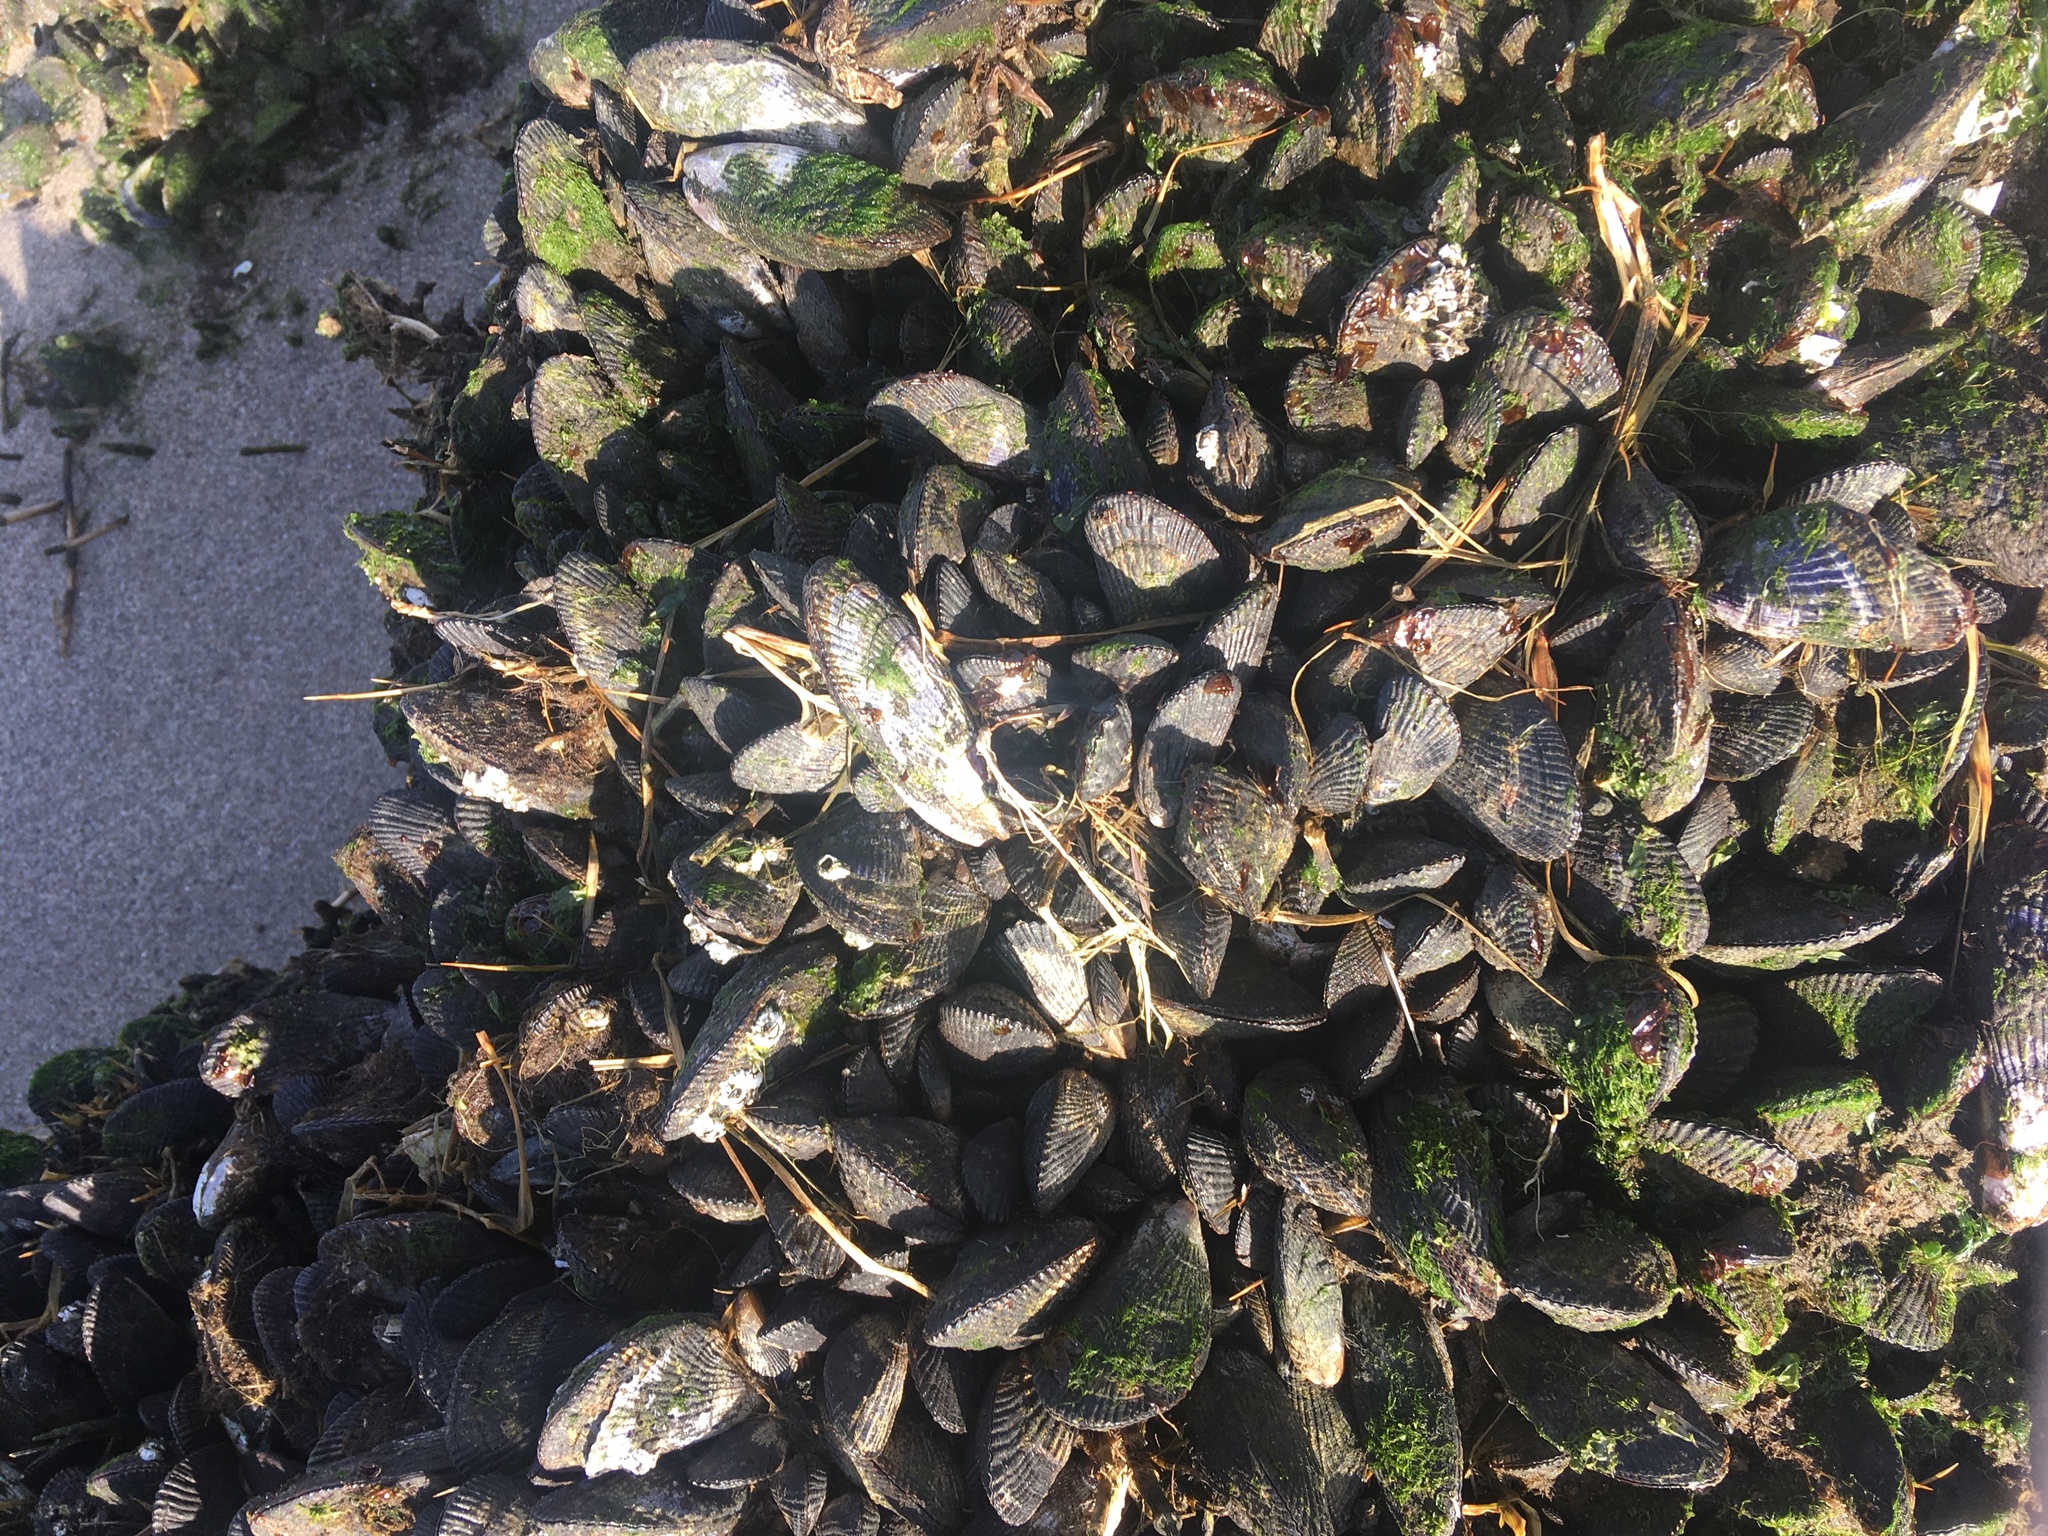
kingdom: Animalia
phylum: Mollusca
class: Bivalvia
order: Mytilida
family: Mytilidae
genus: Geukensia
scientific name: Geukensia demissa
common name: Ribbed mussel
